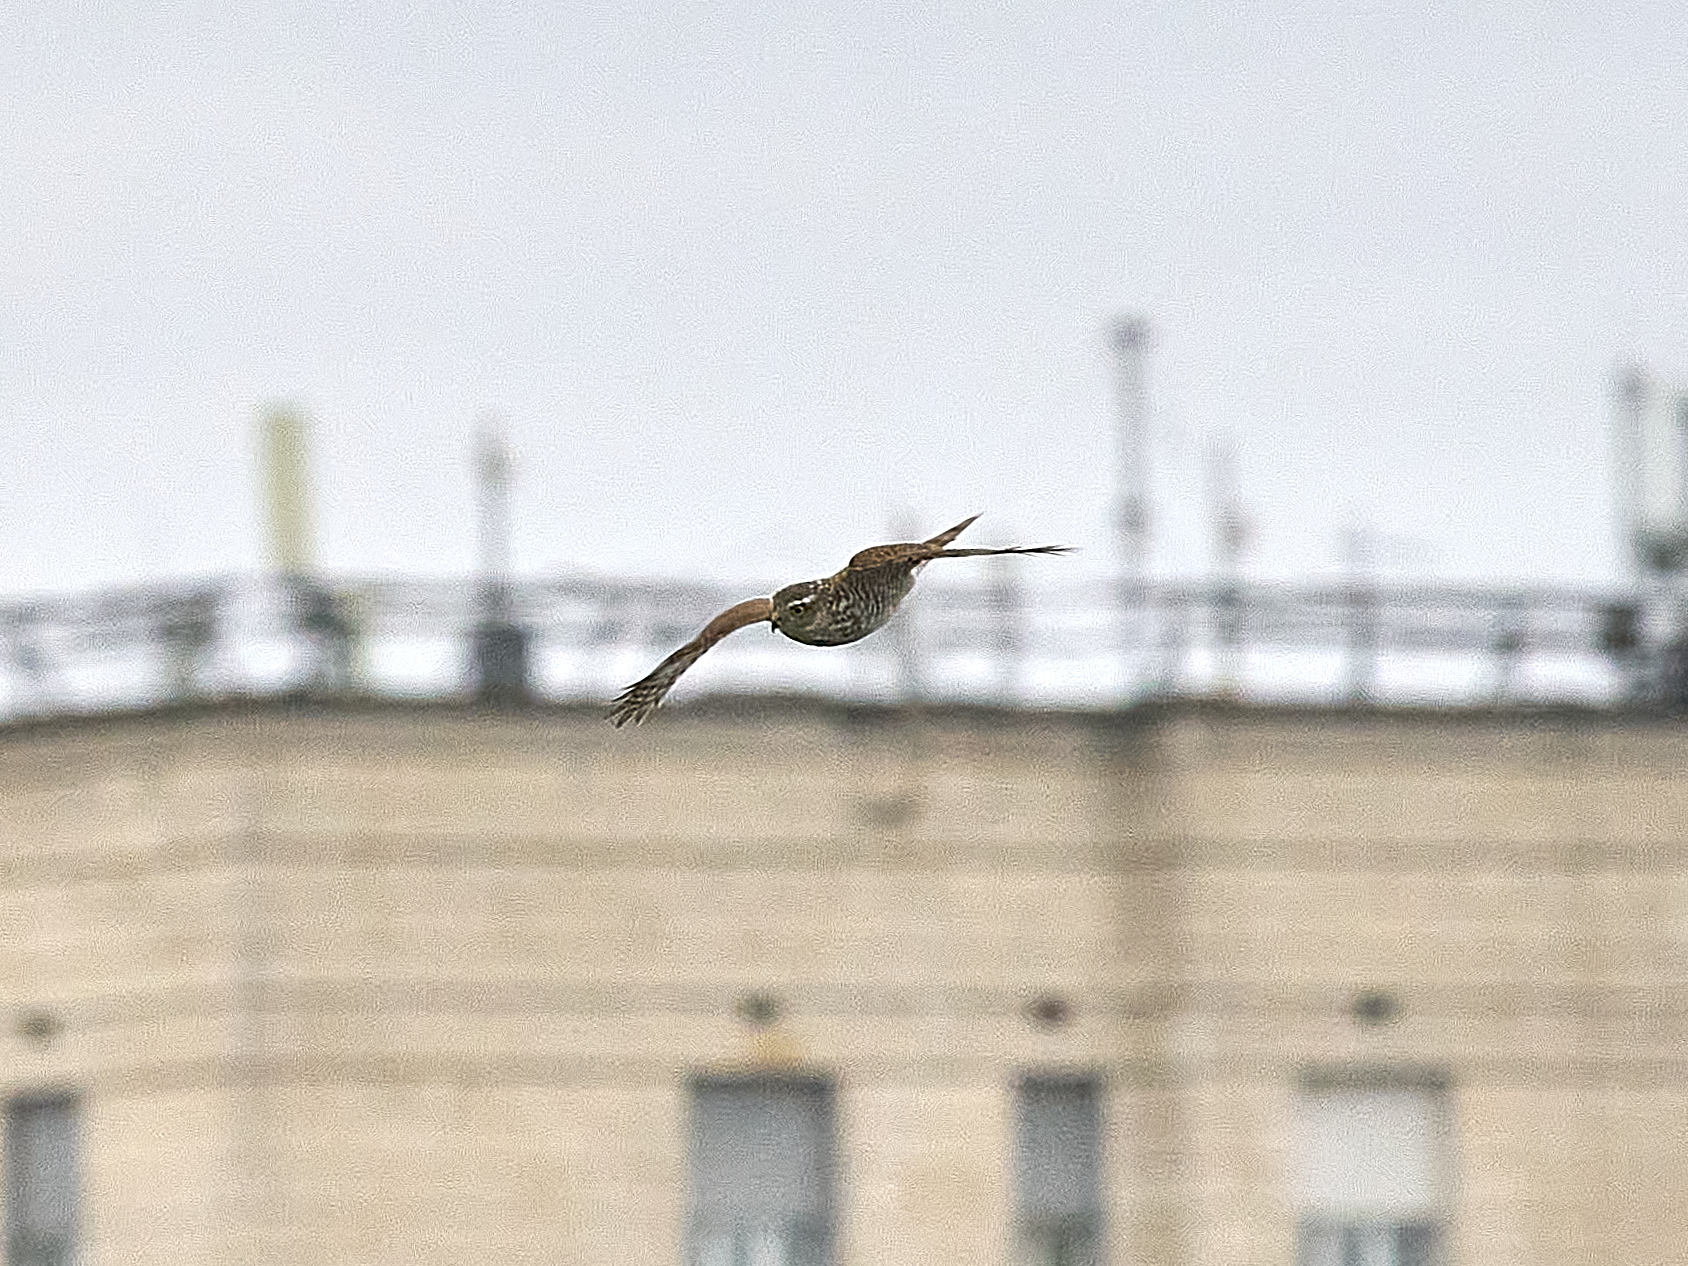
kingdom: Animalia
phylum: Chordata
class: Aves
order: Accipitriformes
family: Accipitridae
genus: Accipiter
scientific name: Accipiter nisus
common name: Eurasian sparrowhawk
